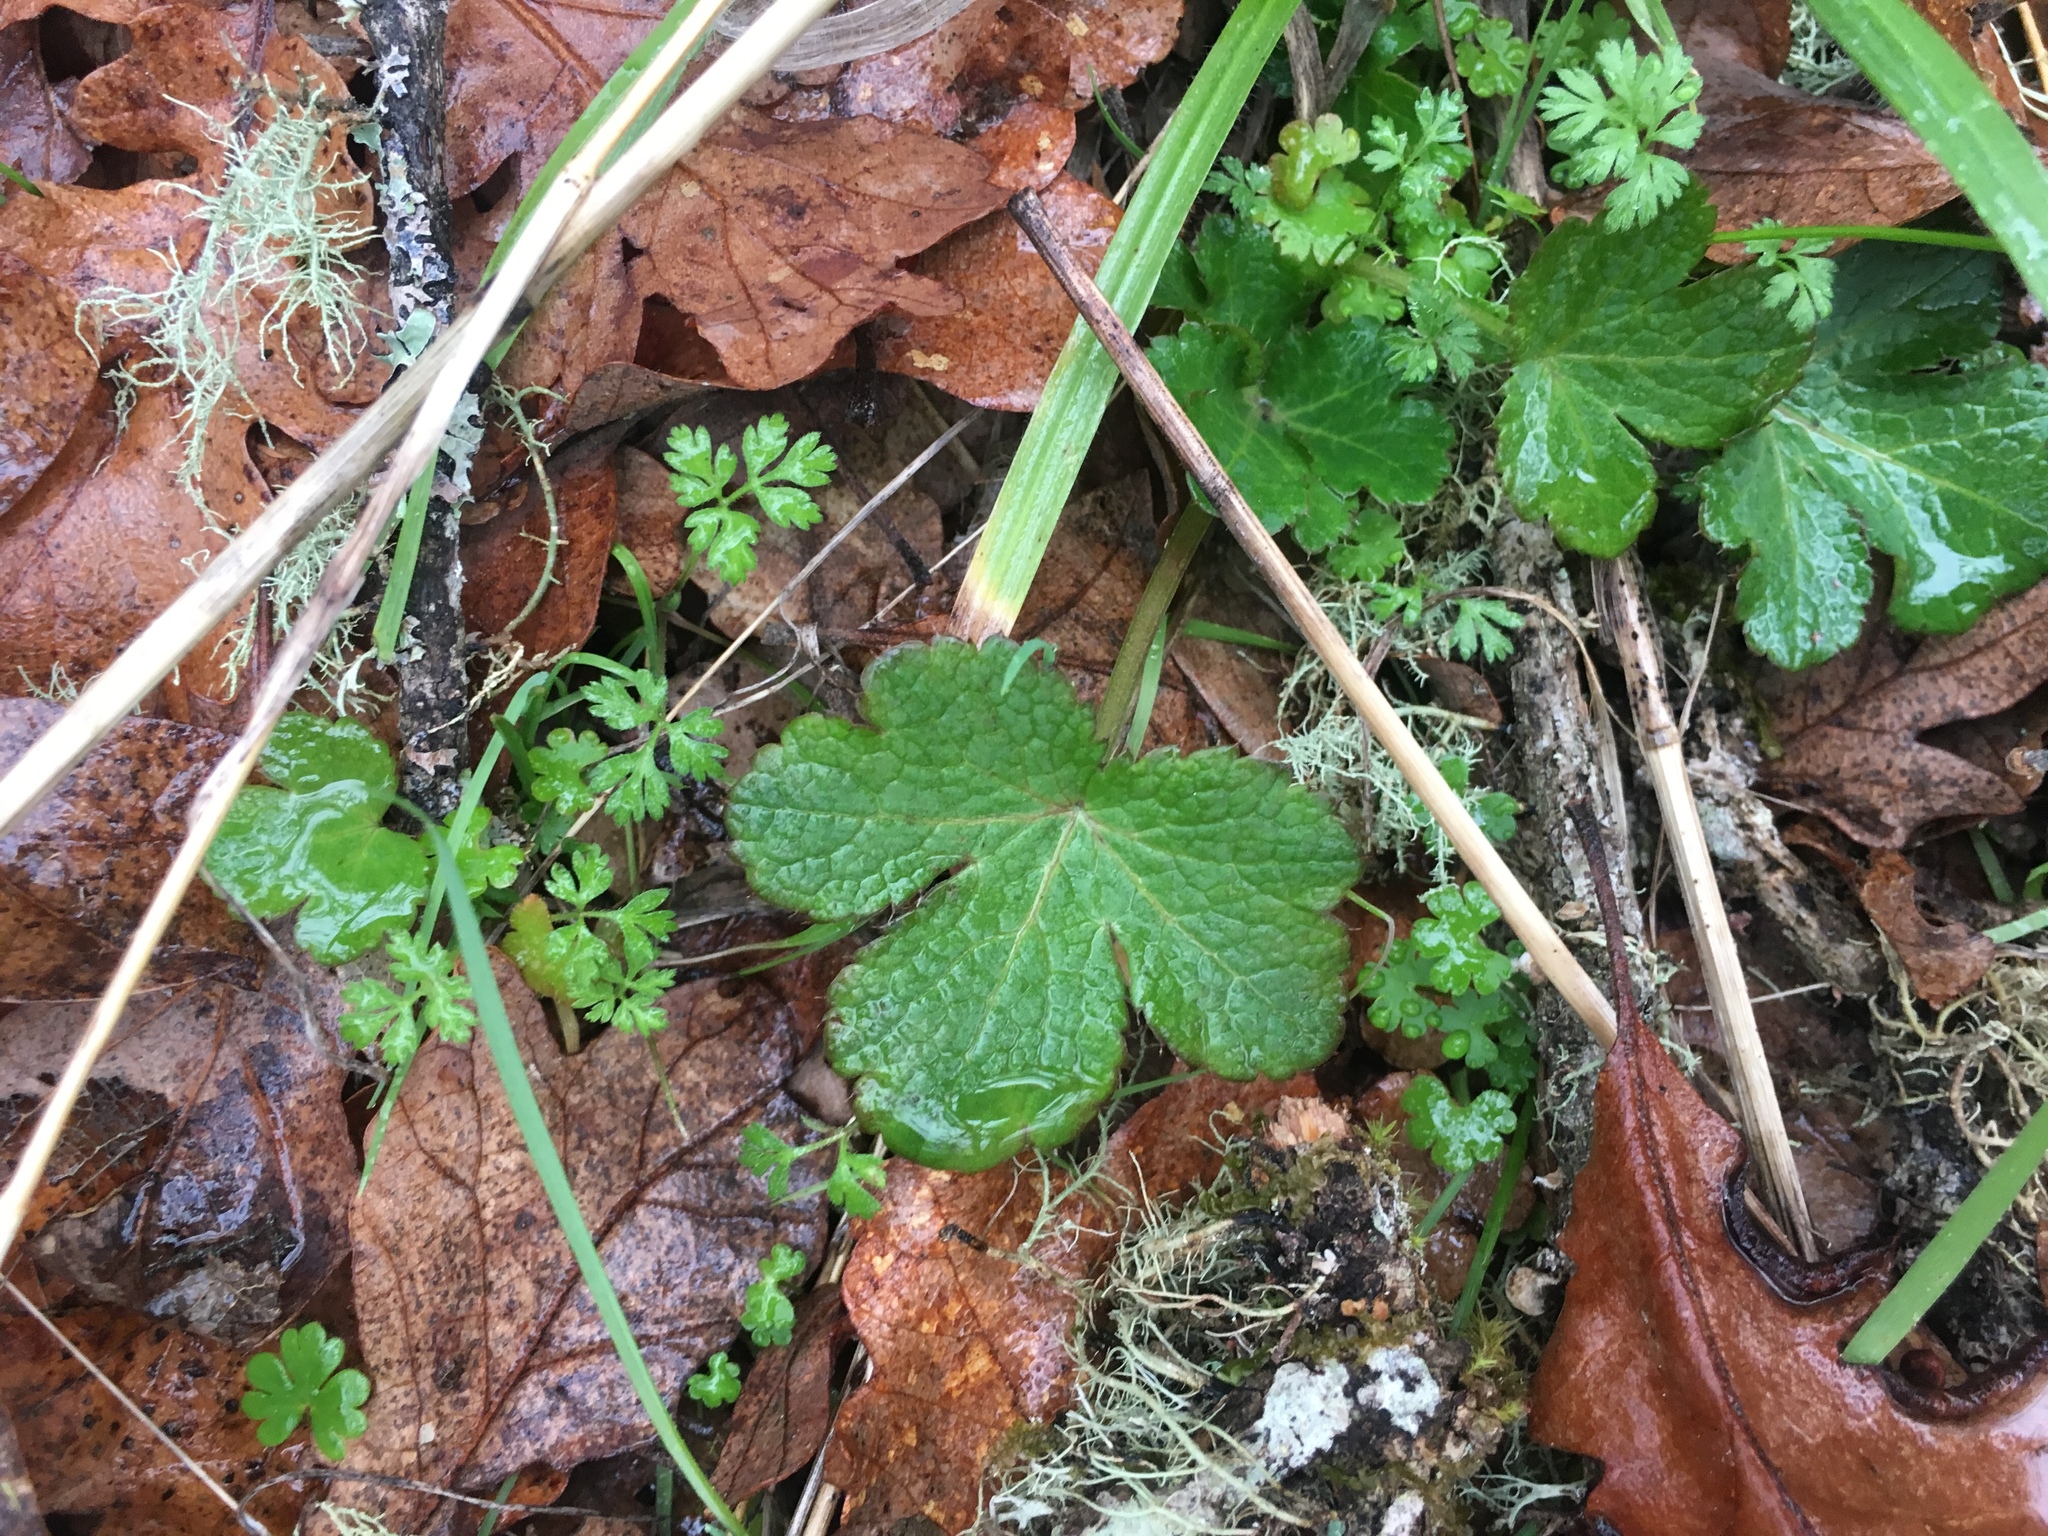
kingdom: Plantae
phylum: Tracheophyta
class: Magnoliopsida
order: Apiales
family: Apiaceae
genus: Sanicula
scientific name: Sanicula crassicaulis
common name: Western snakeroot
